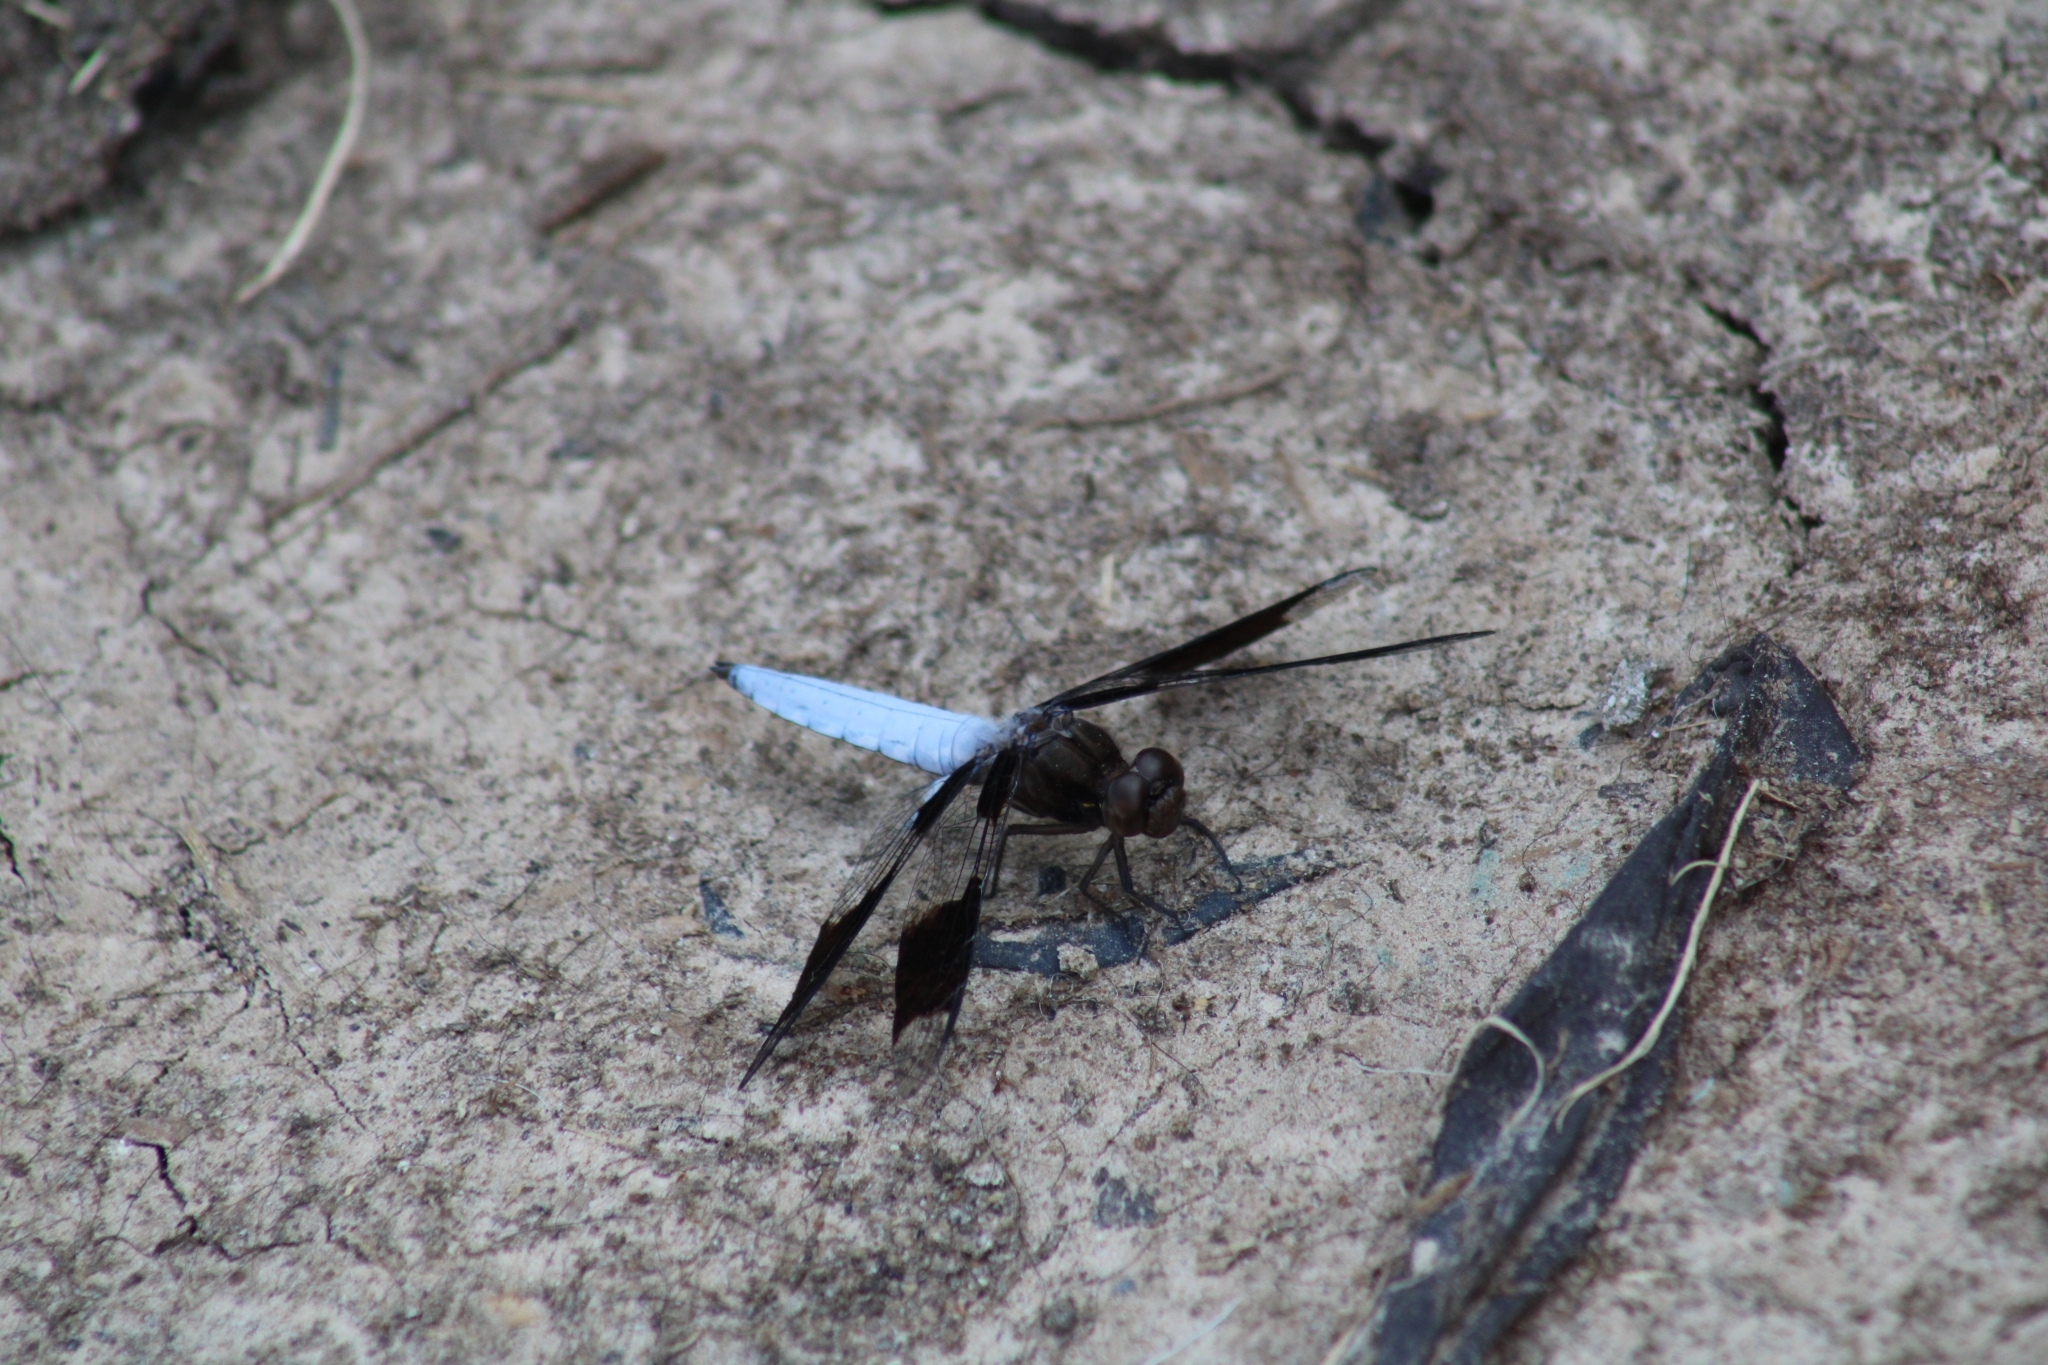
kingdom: Animalia
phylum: Arthropoda
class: Insecta
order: Odonata
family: Libellulidae
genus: Plathemis
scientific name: Plathemis lydia
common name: Common whitetail
